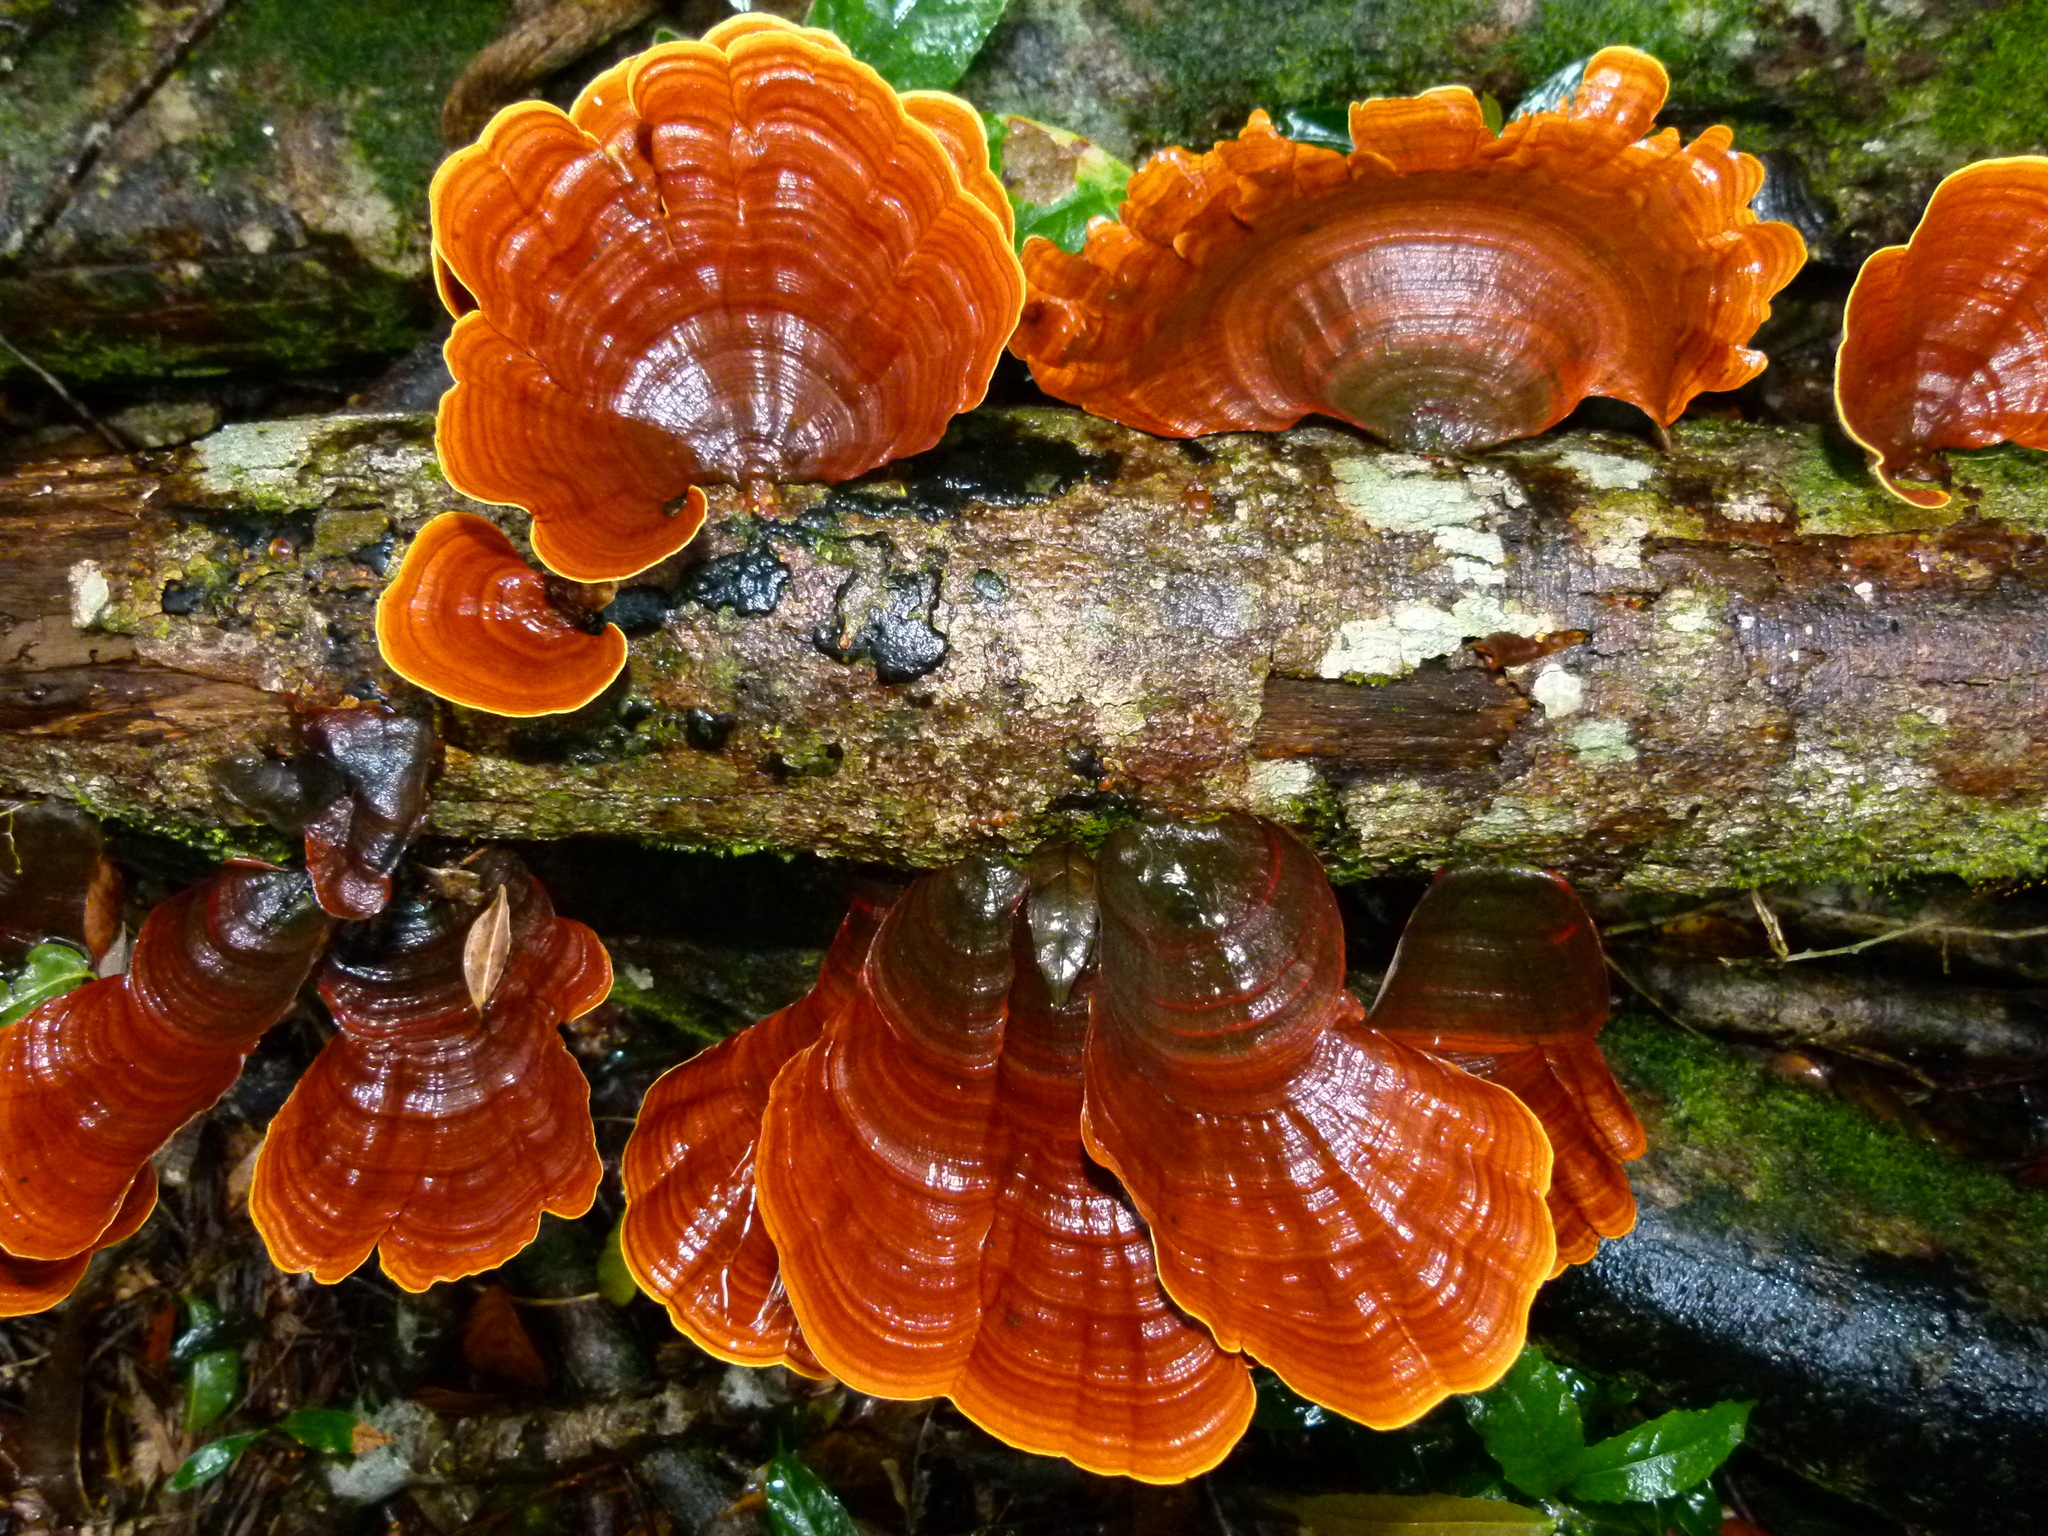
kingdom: Fungi
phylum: Basidiomycota
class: Agaricomycetes
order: Russulales
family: Stereaceae
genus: Stereum
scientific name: Stereum versicolor
